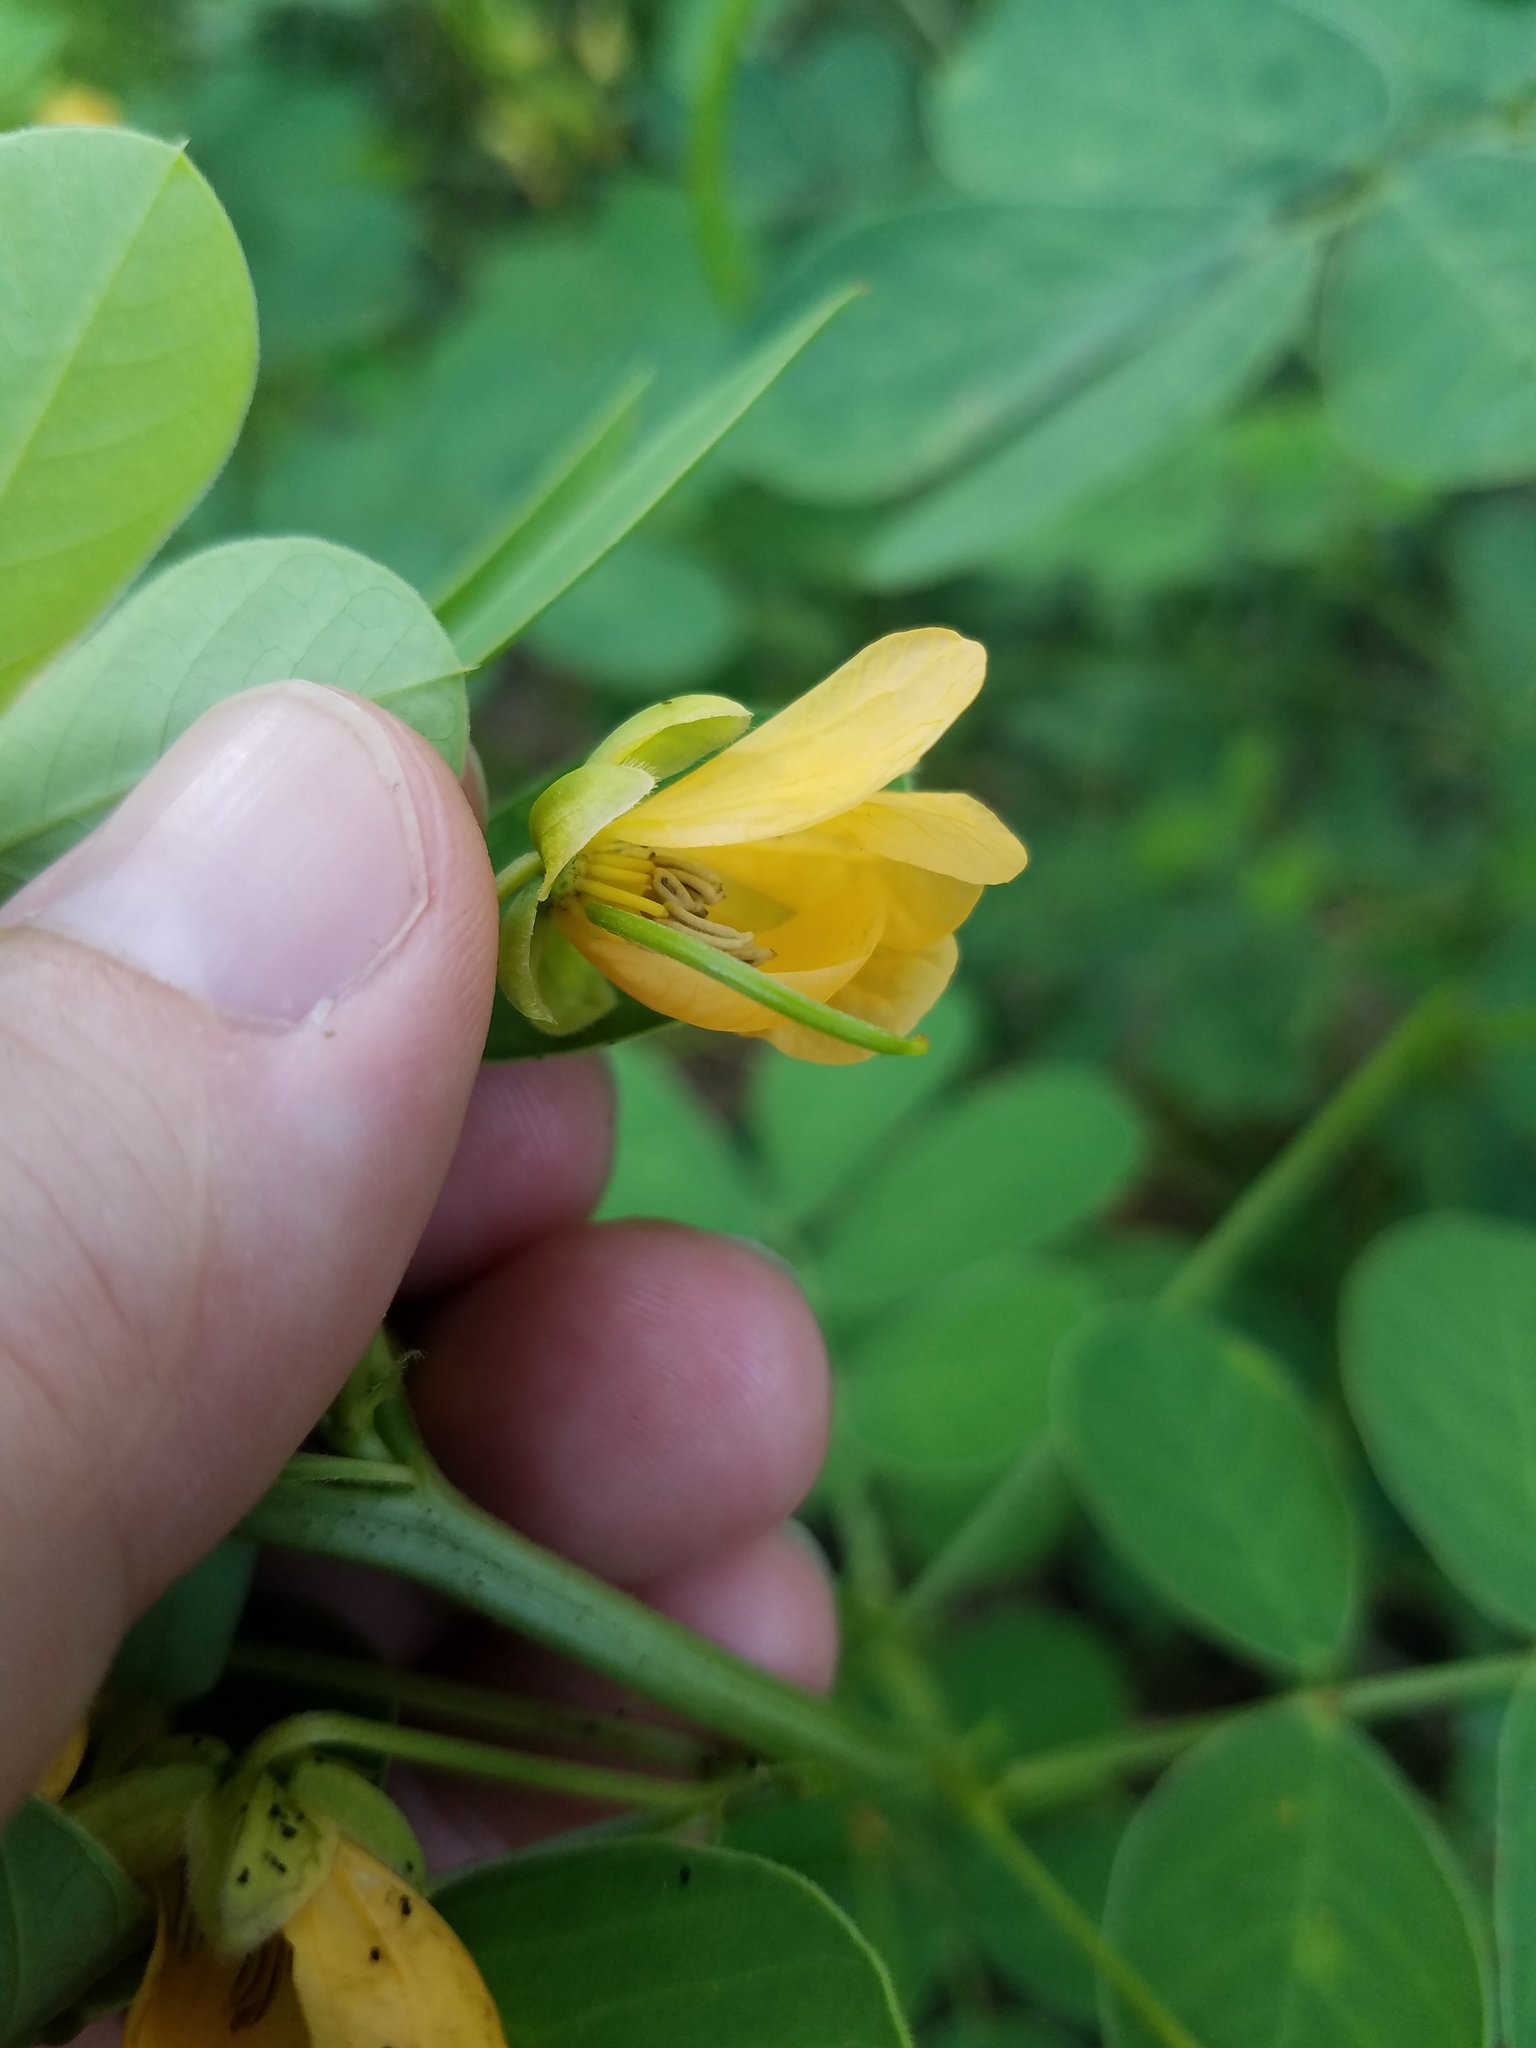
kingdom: Plantae
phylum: Tracheophyta
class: Magnoliopsida
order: Fabales
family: Fabaceae
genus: Senna
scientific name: Senna obtusifolia
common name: Java-bean
